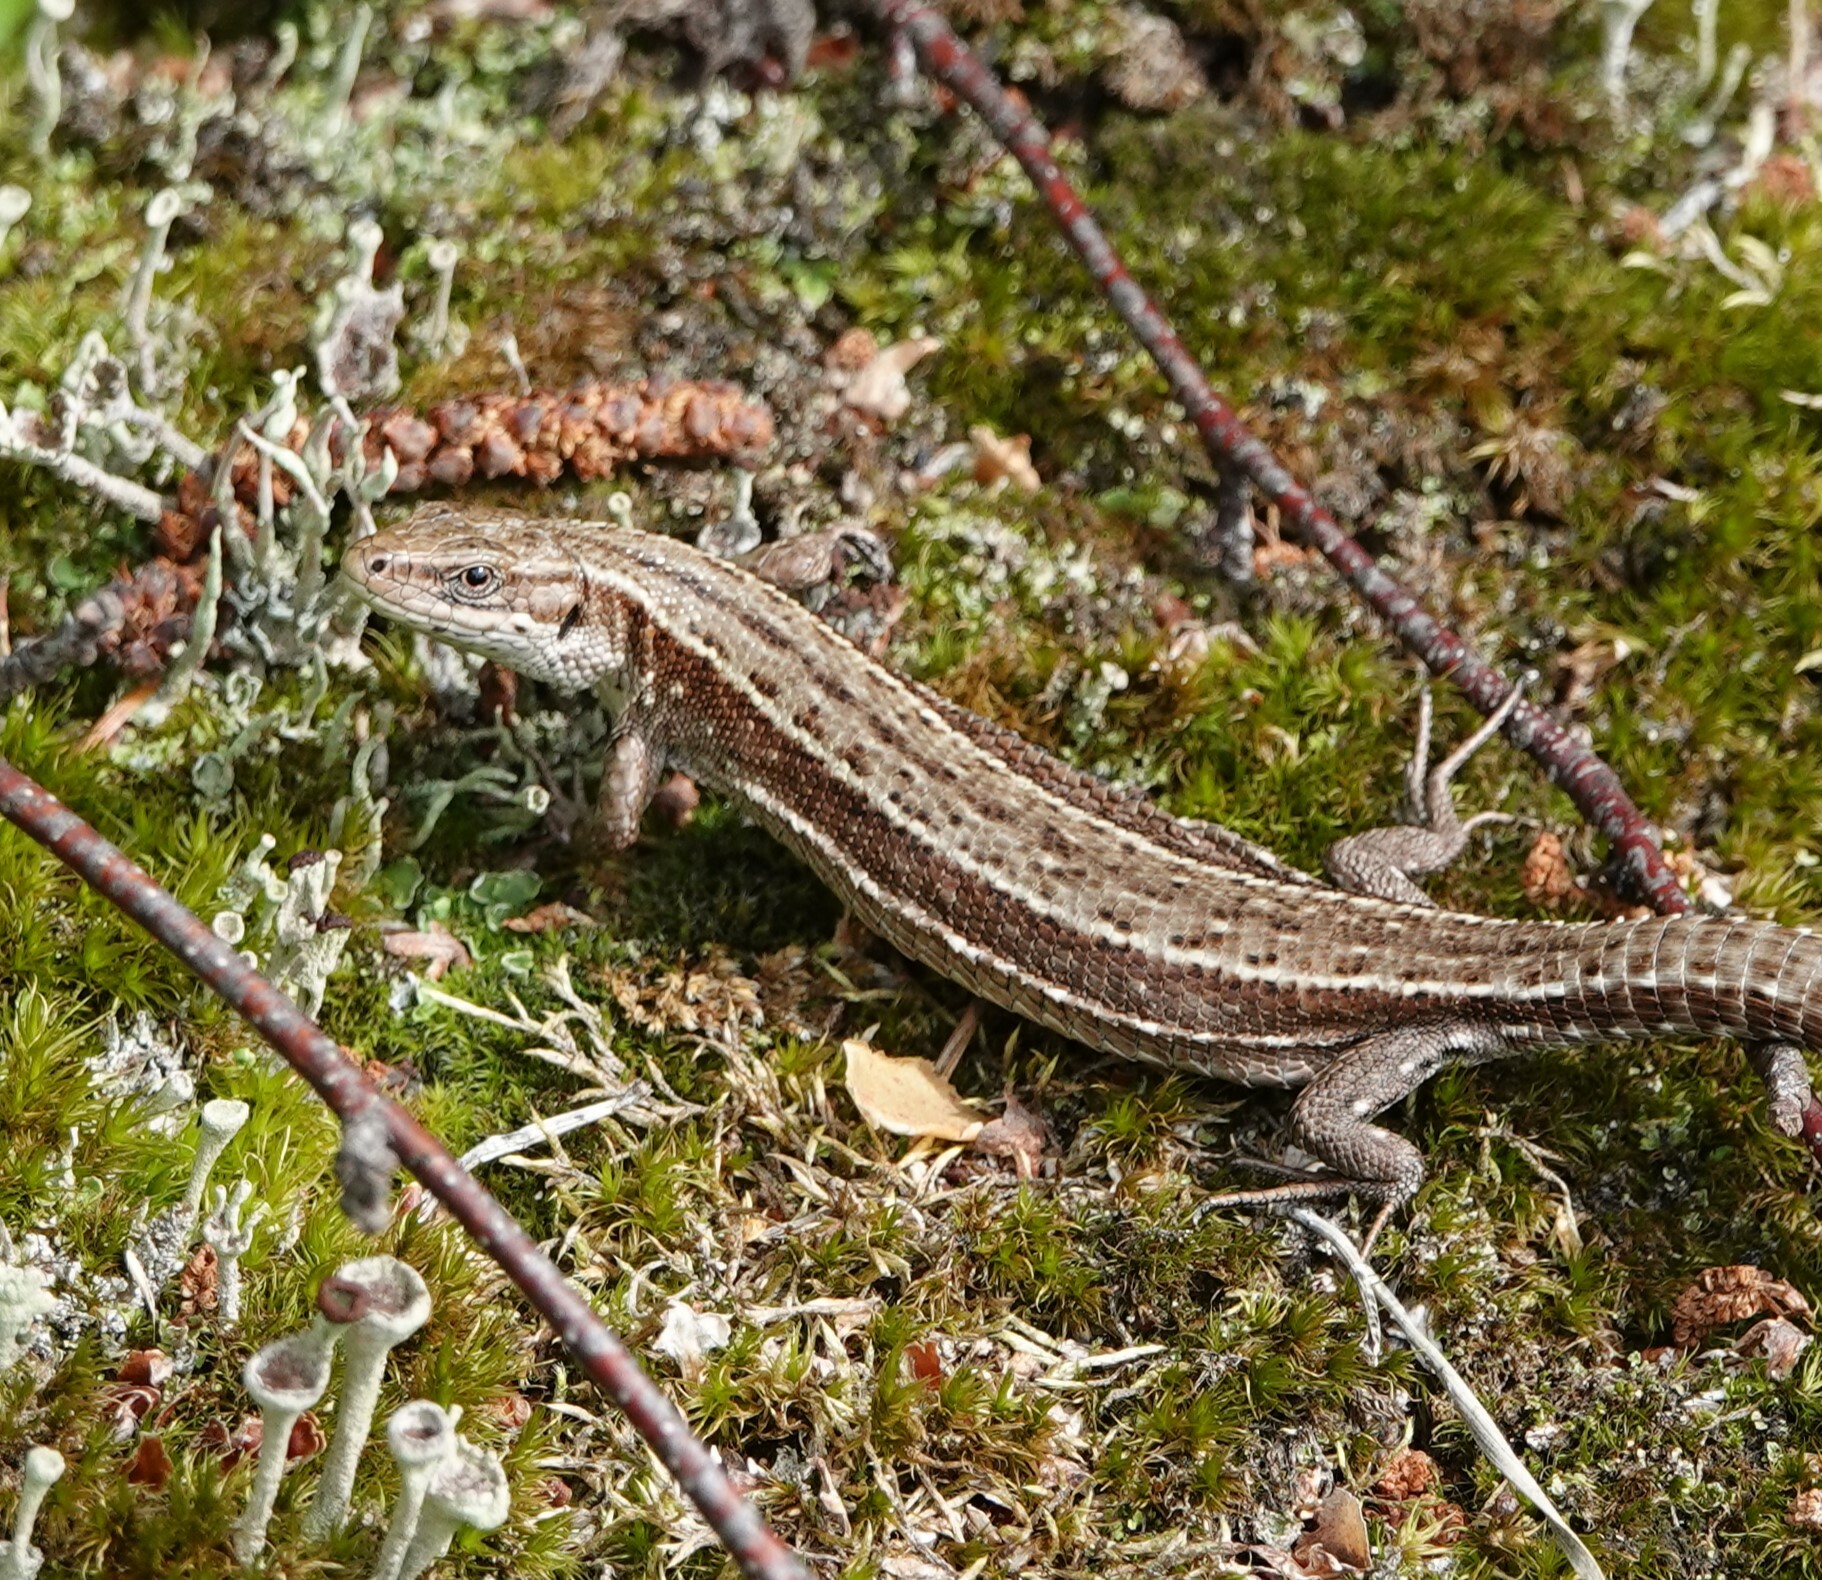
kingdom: Animalia
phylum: Chordata
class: Squamata
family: Lacertidae
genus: Zootoca
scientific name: Zootoca vivipara
